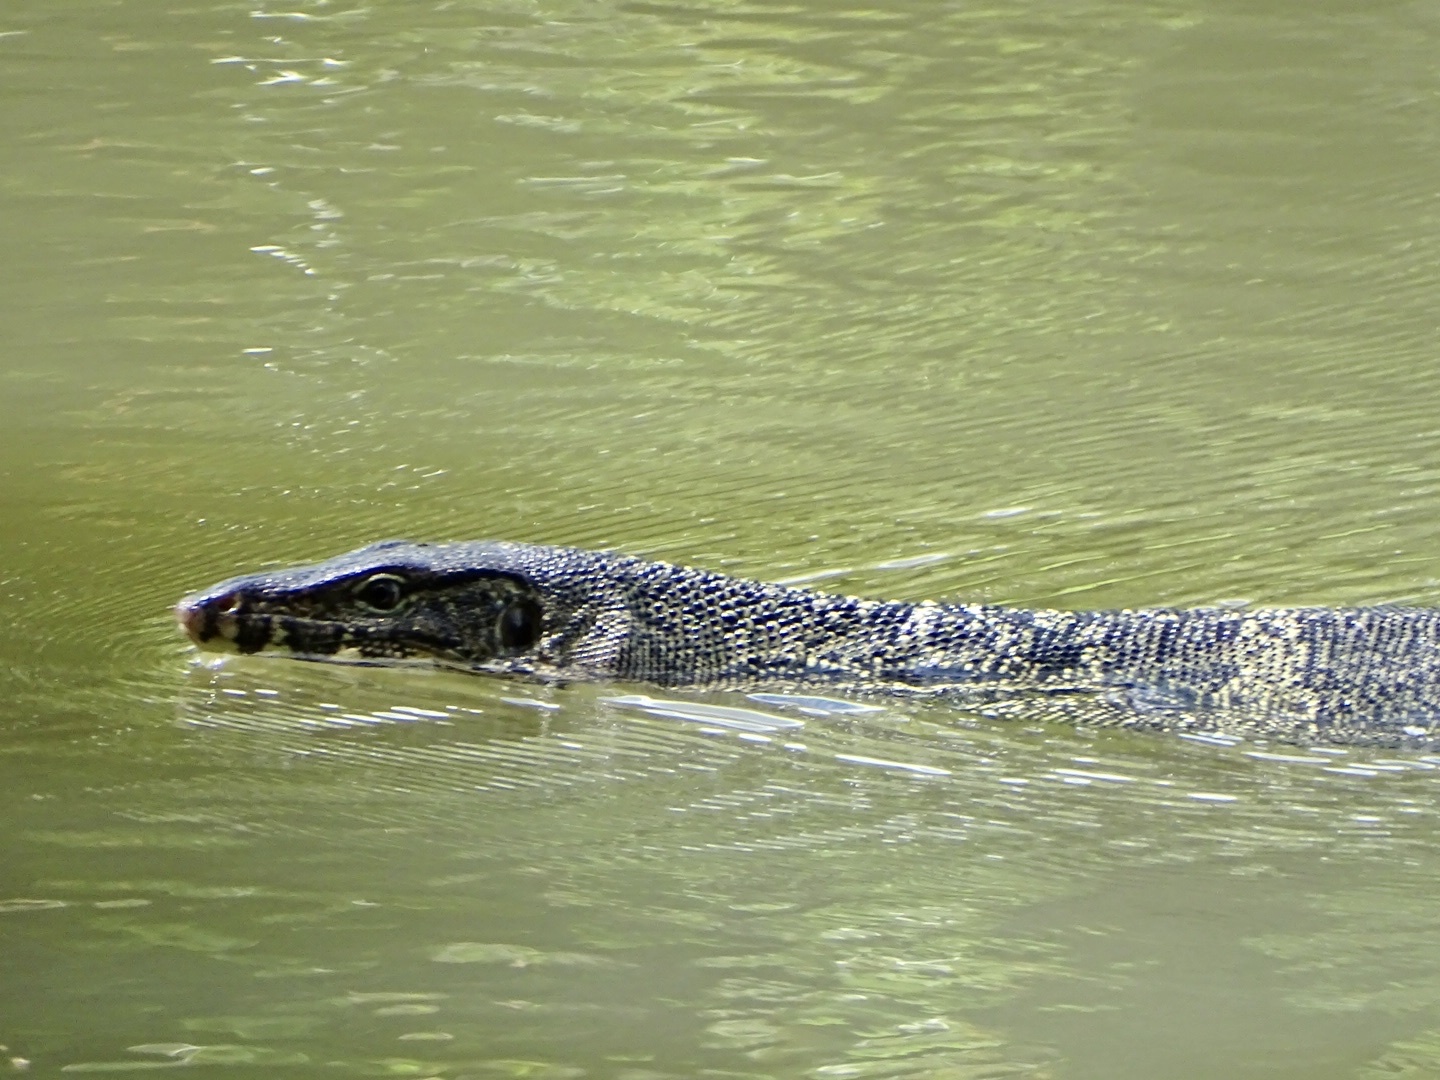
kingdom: Animalia
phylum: Chordata
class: Squamata
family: Varanidae
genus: Varanus
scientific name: Varanus salvator
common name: Common water monitor
